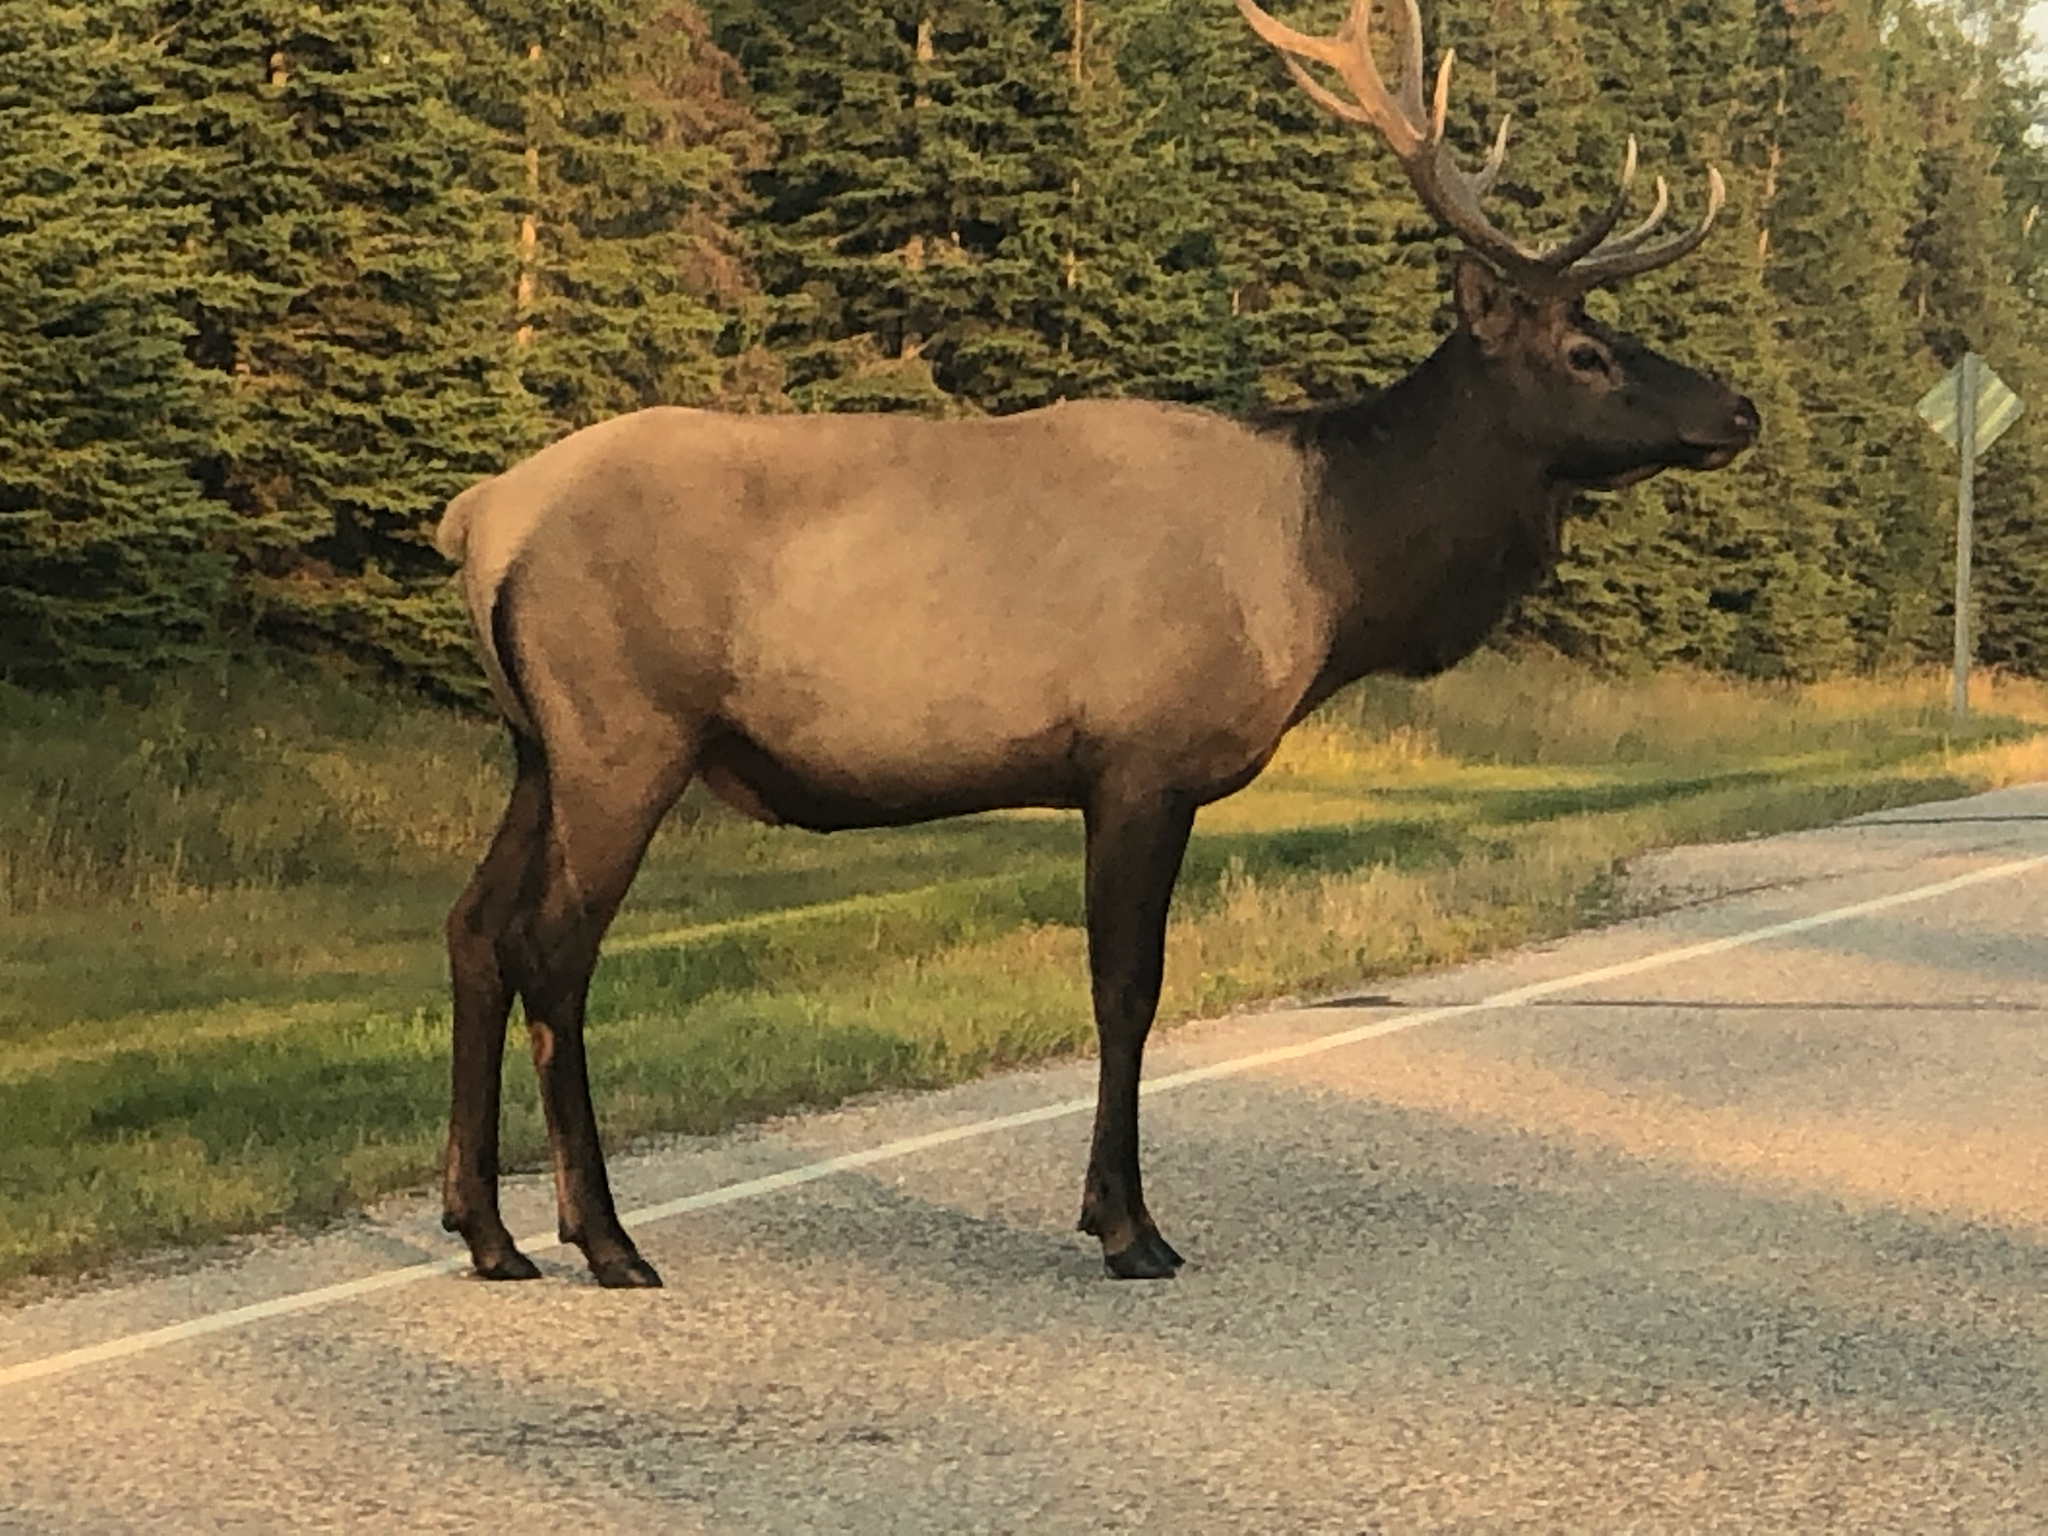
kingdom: Animalia
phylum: Chordata
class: Mammalia
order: Artiodactyla
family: Cervidae
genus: Cervus
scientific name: Cervus elaphus
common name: Red deer
